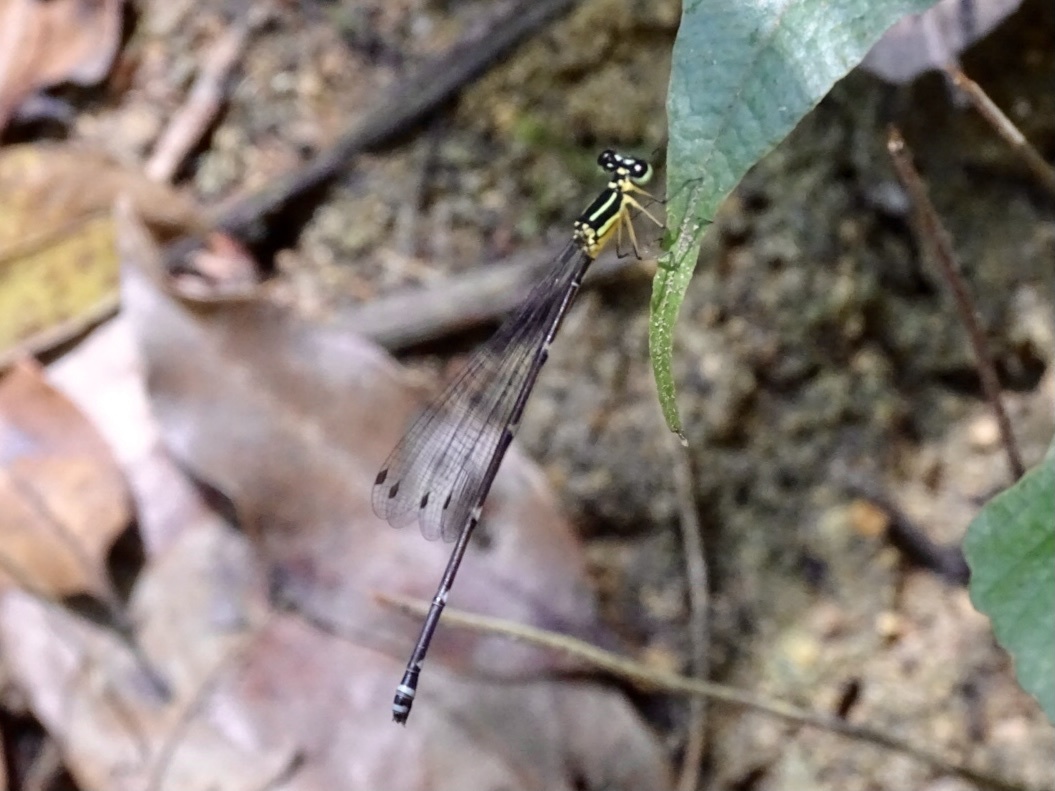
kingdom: Animalia
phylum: Arthropoda
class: Insecta
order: Odonata
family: Platycnemididae
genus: Coeliccia
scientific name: Coeliccia cyanomelas
